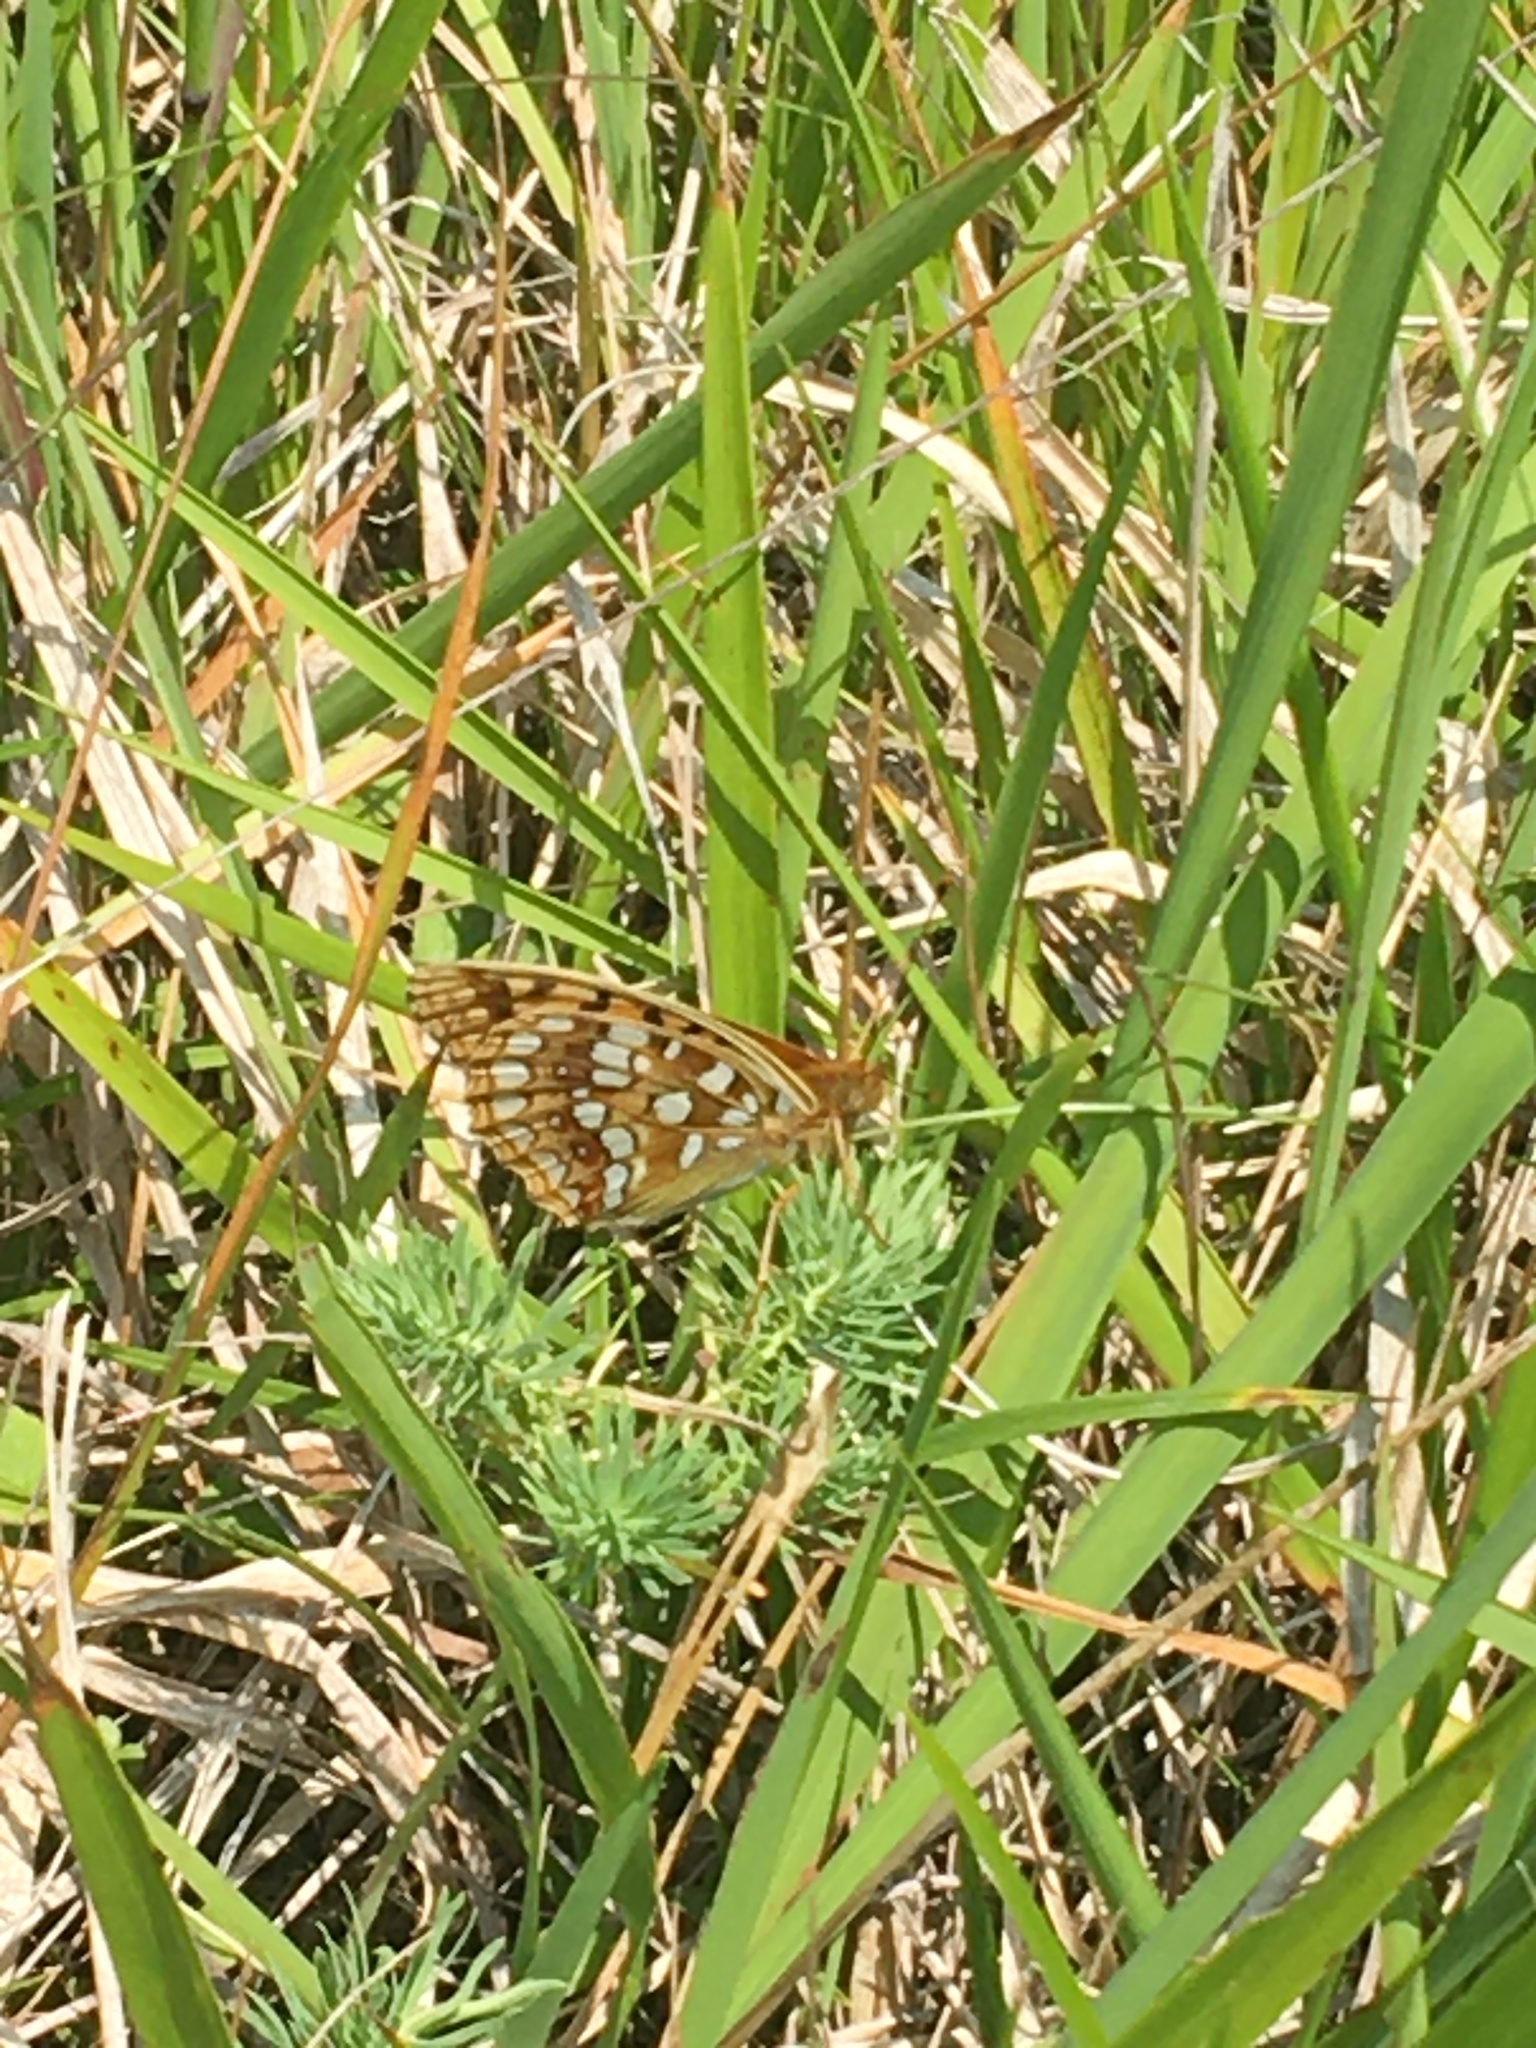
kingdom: Animalia
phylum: Arthropoda
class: Insecta
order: Lepidoptera
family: Nymphalidae
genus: Fabriciana
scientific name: Fabriciana adippe
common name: High brown fritillary
